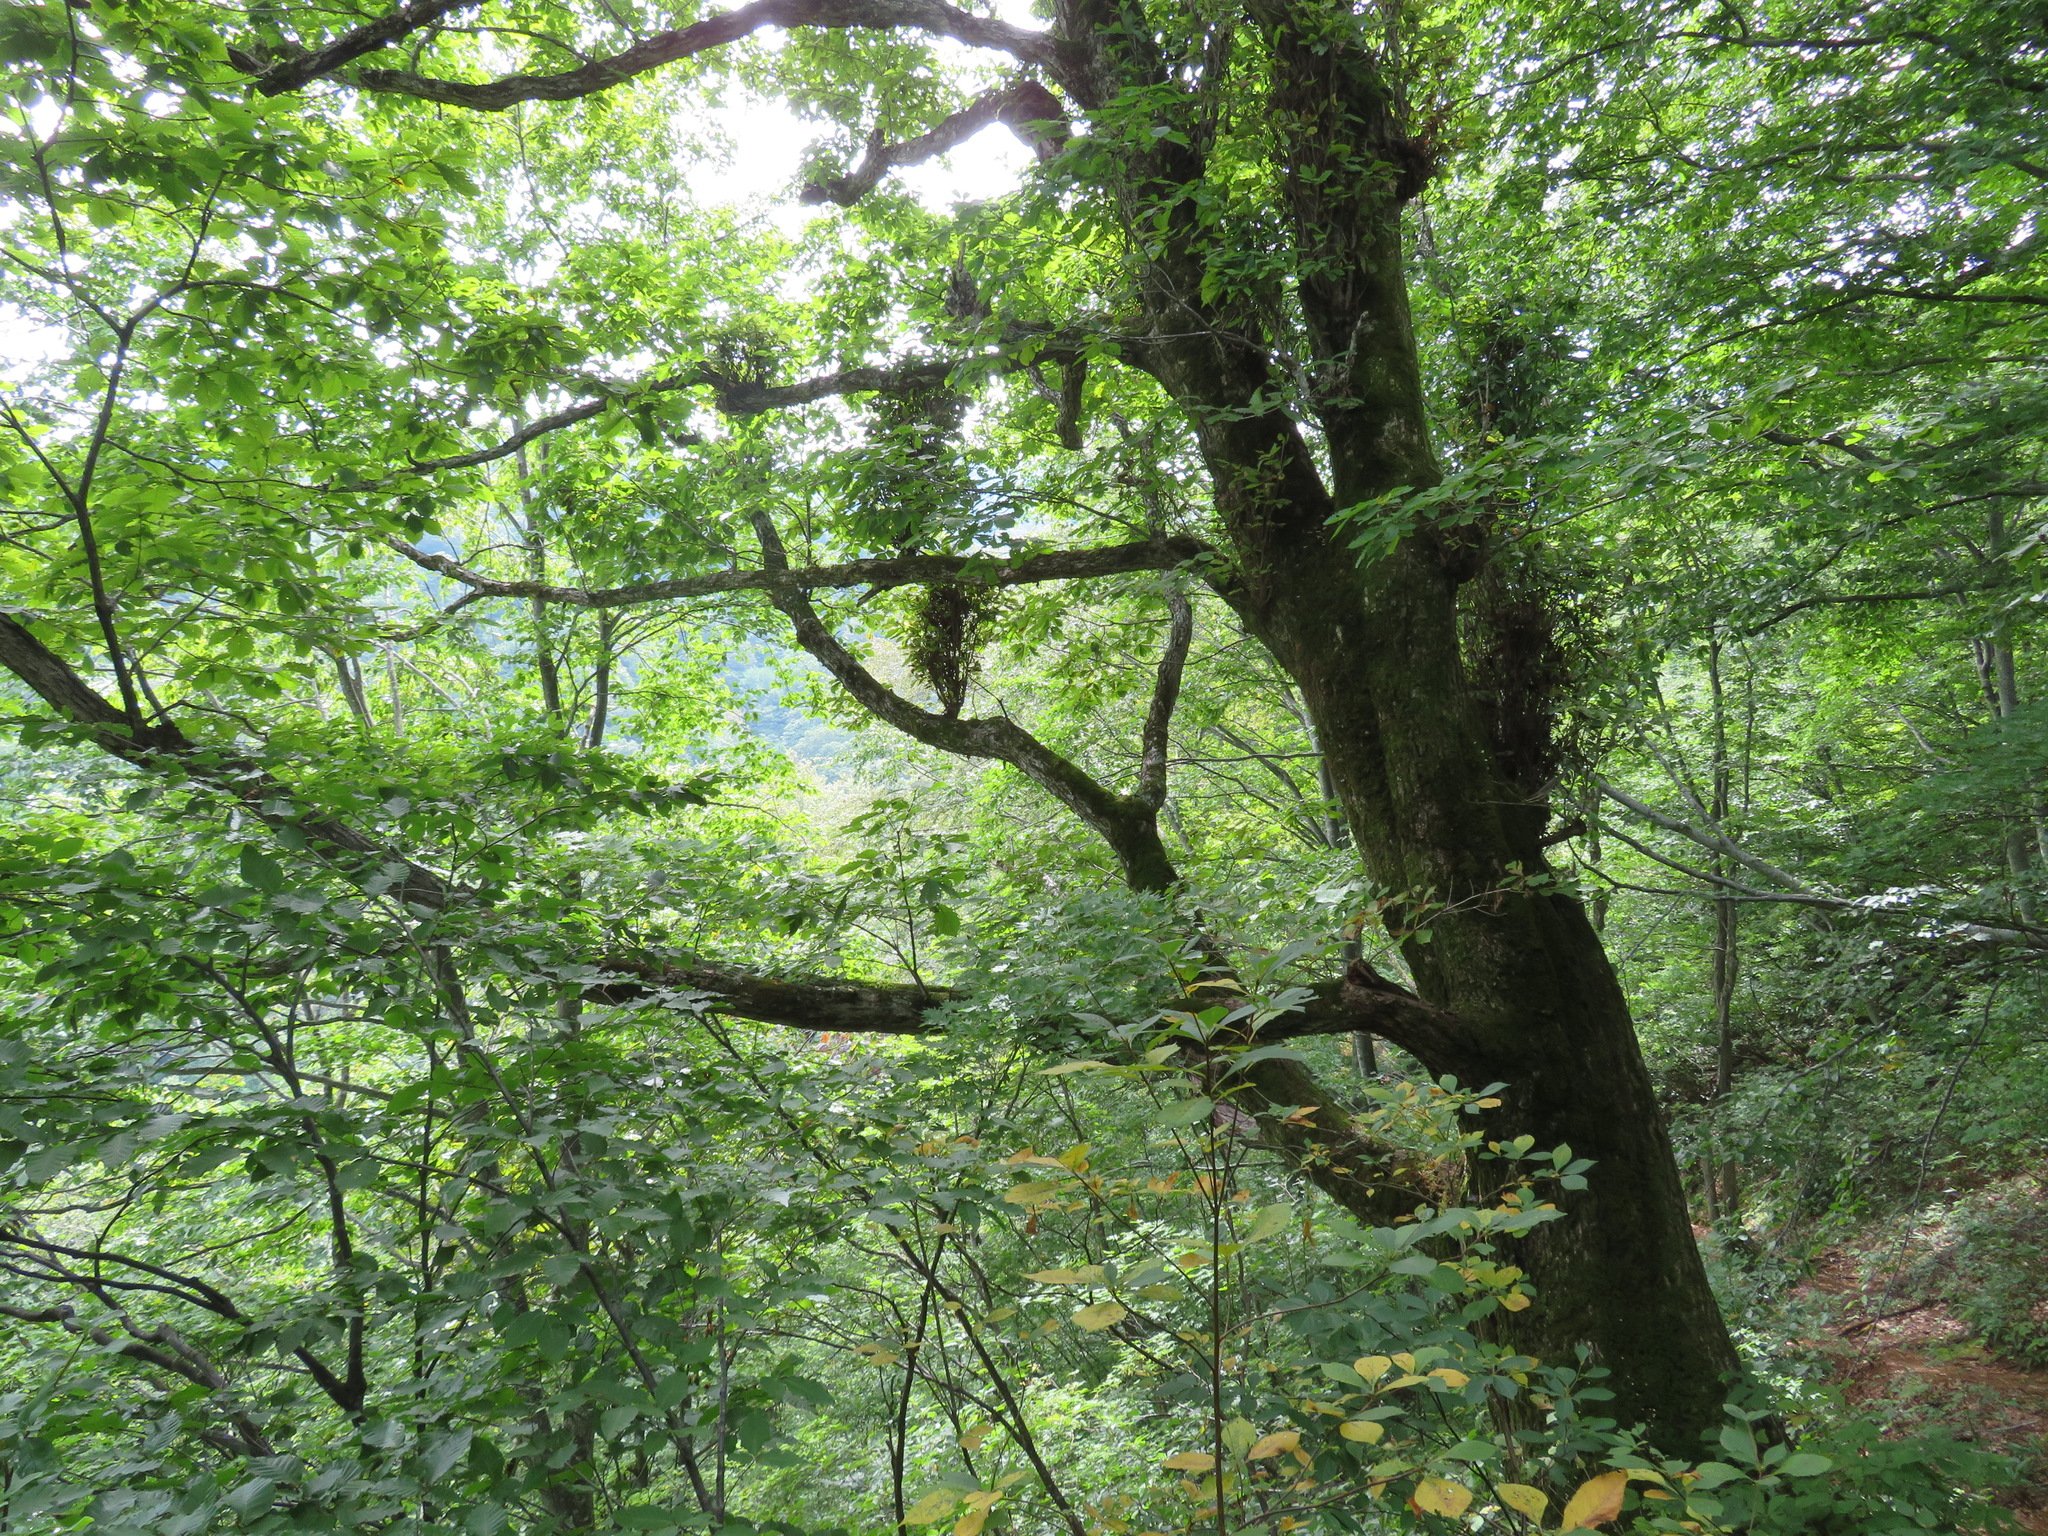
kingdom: Plantae
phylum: Tracheophyta
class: Magnoliopsida
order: Fagales
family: Fagaceae
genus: Quercus
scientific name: Quercus crispula
